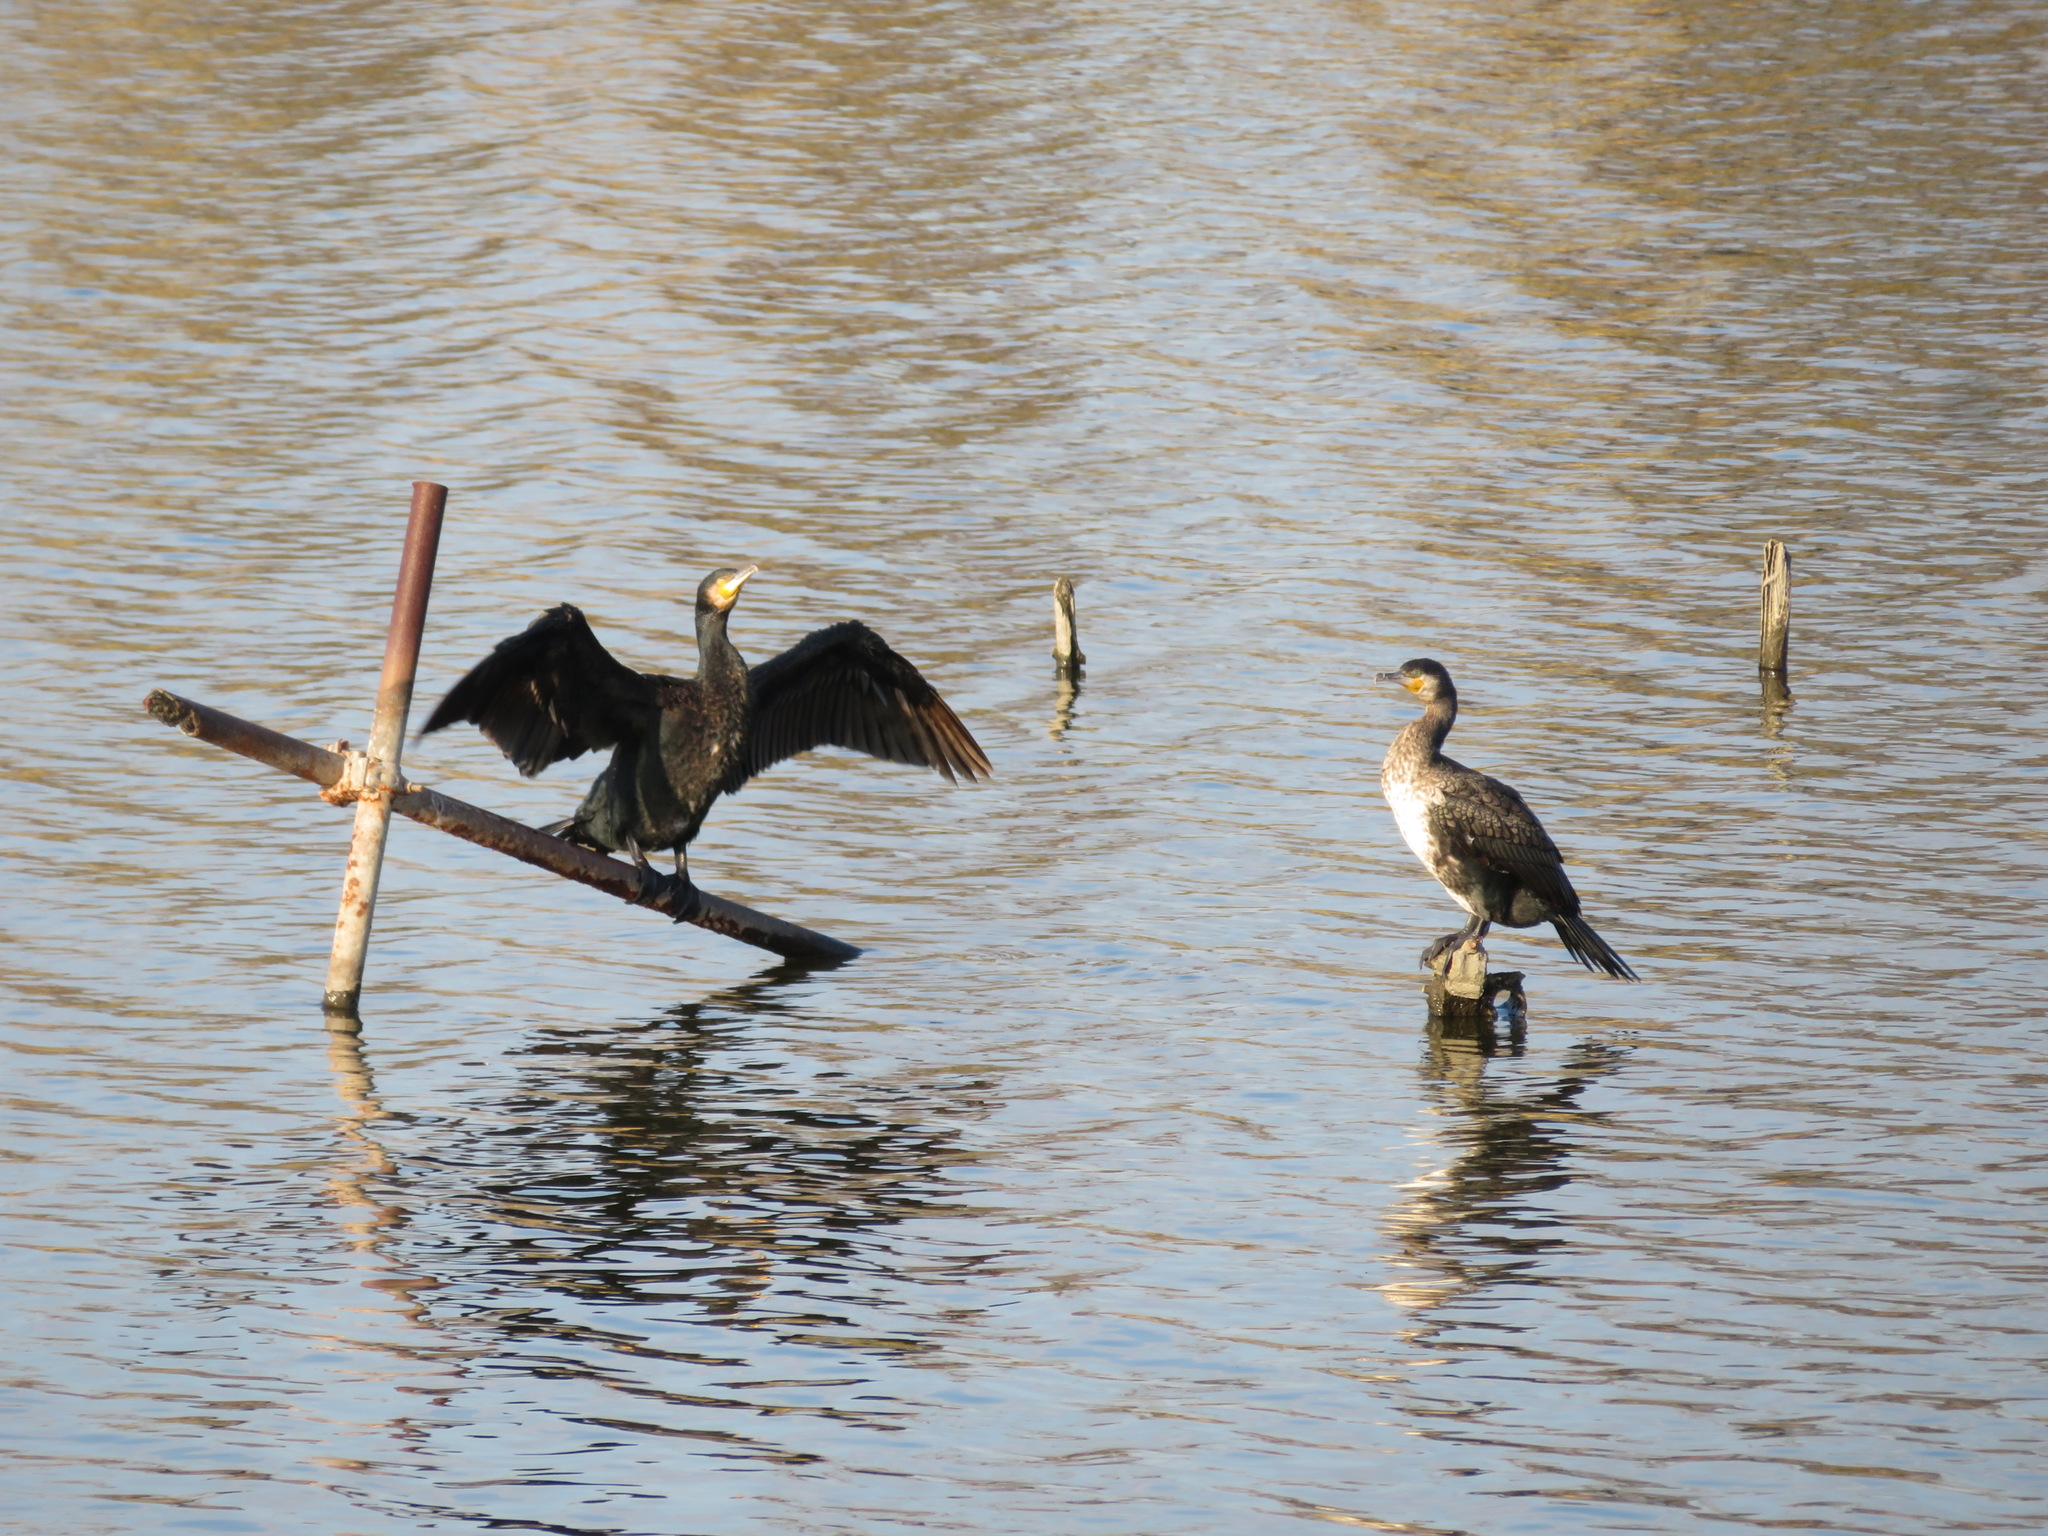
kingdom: Animalia
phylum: Chordata
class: Aves
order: Suliformes
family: Phalacrocoracidae
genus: Phalacrocorax
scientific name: Phalacrocorax carbo
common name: Great cormorant
